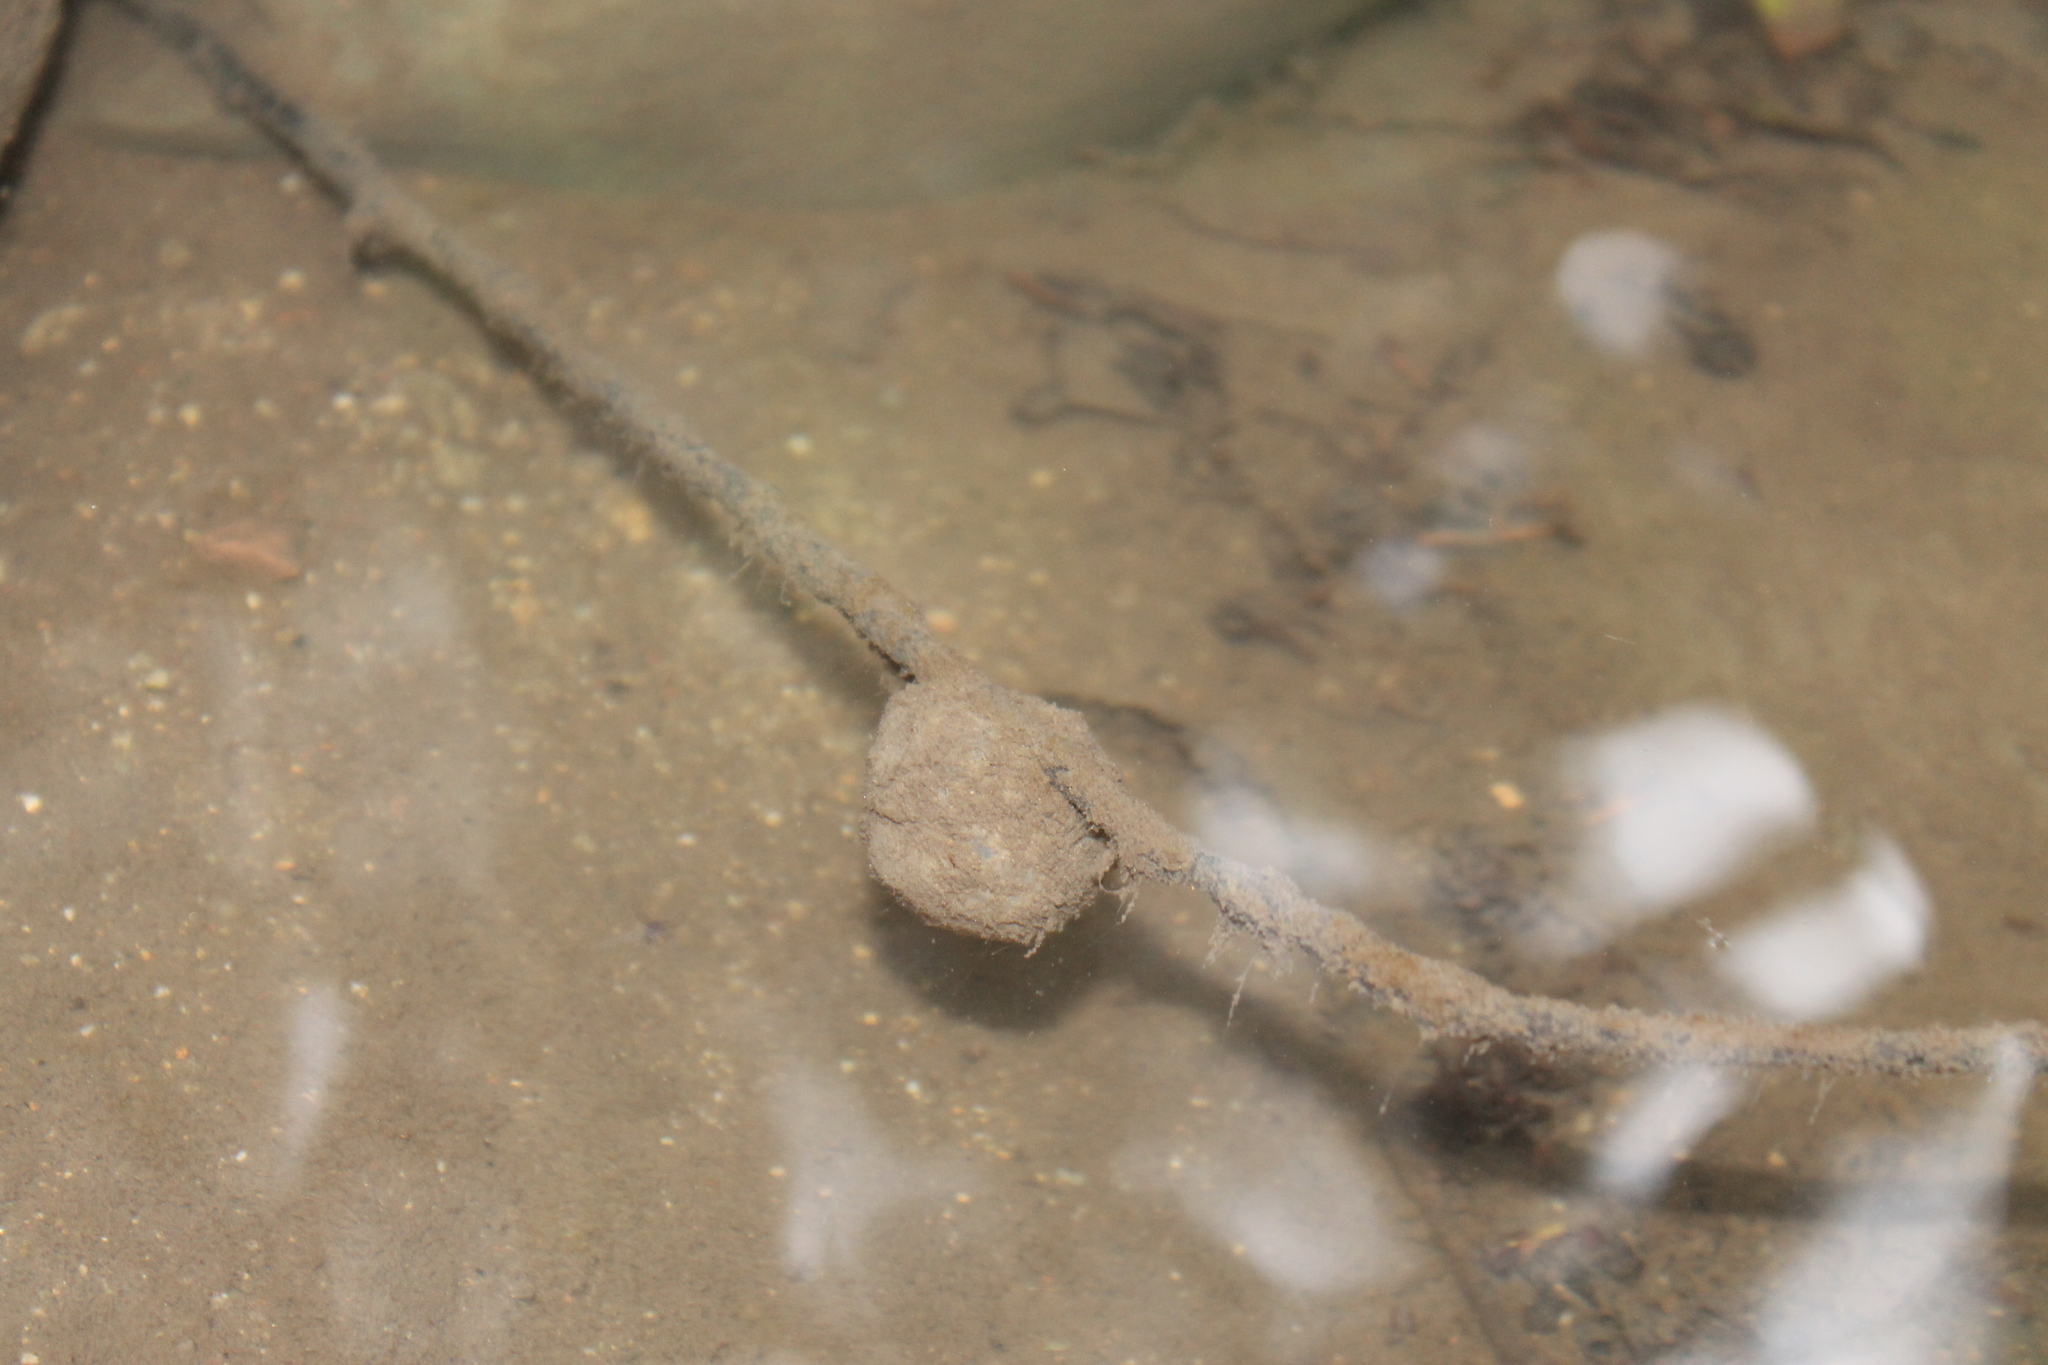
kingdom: Animalia
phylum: Chordata
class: Amphibia
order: Caudata
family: Salamandridae
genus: Taricha
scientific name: Taricha torosa
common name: California newt
